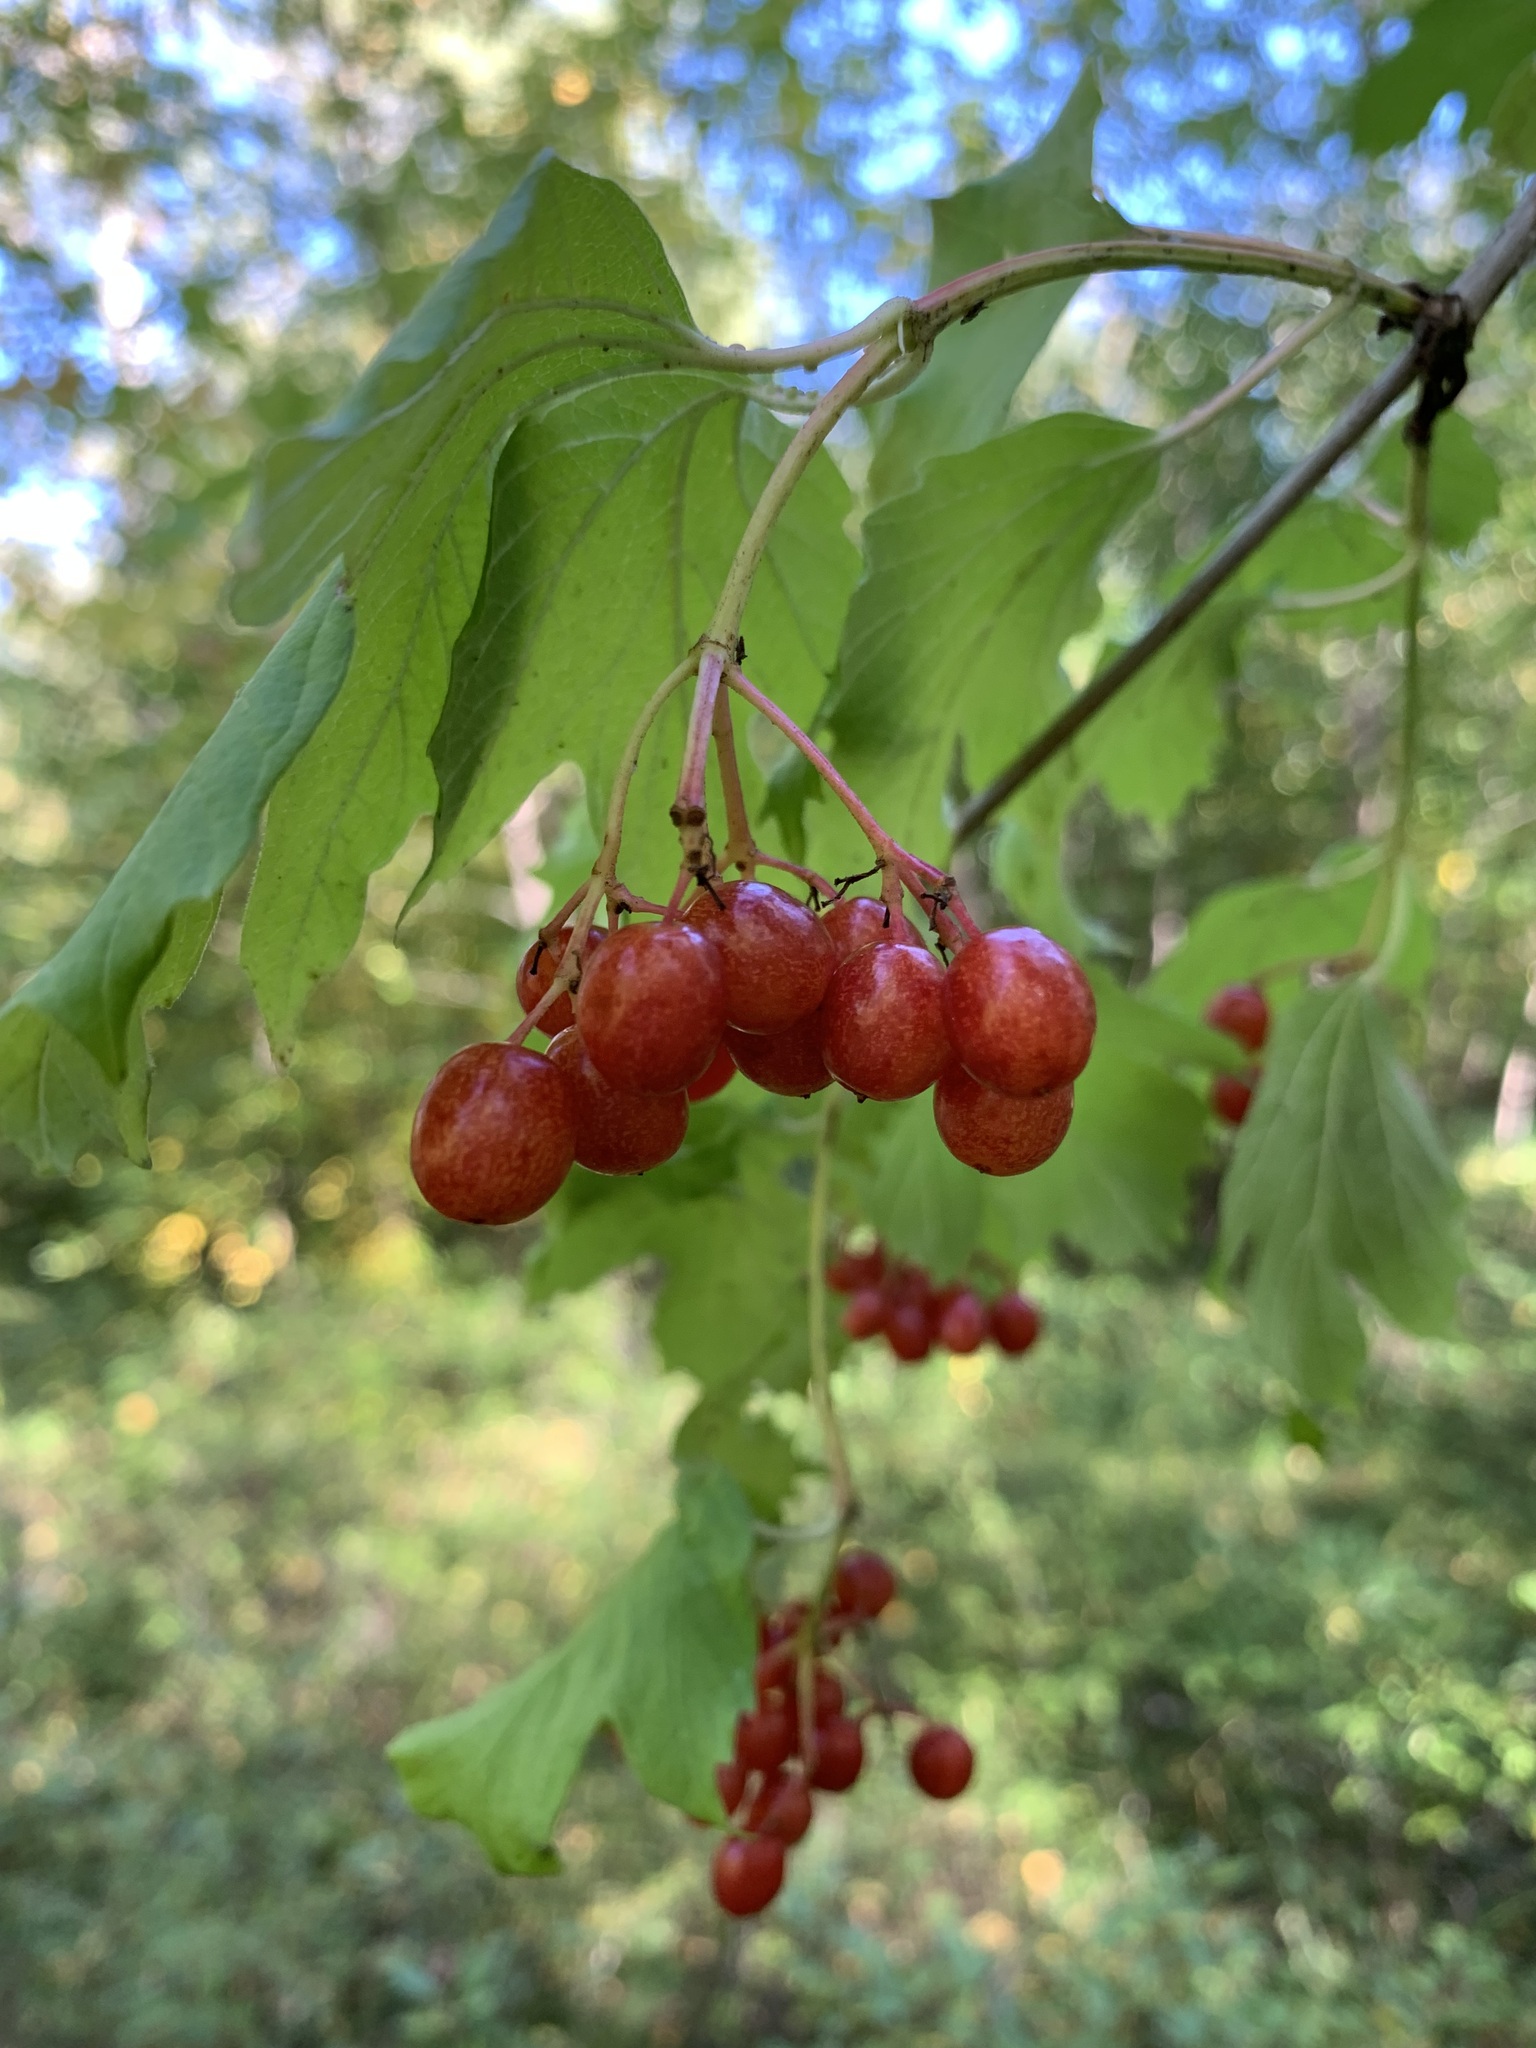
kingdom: Plantae
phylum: Tracheophyta
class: Magnoliopsida
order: Dipsacales
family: Viburnaceae
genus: Viburnum
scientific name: Viburnum opulus
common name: Guelder-rose
